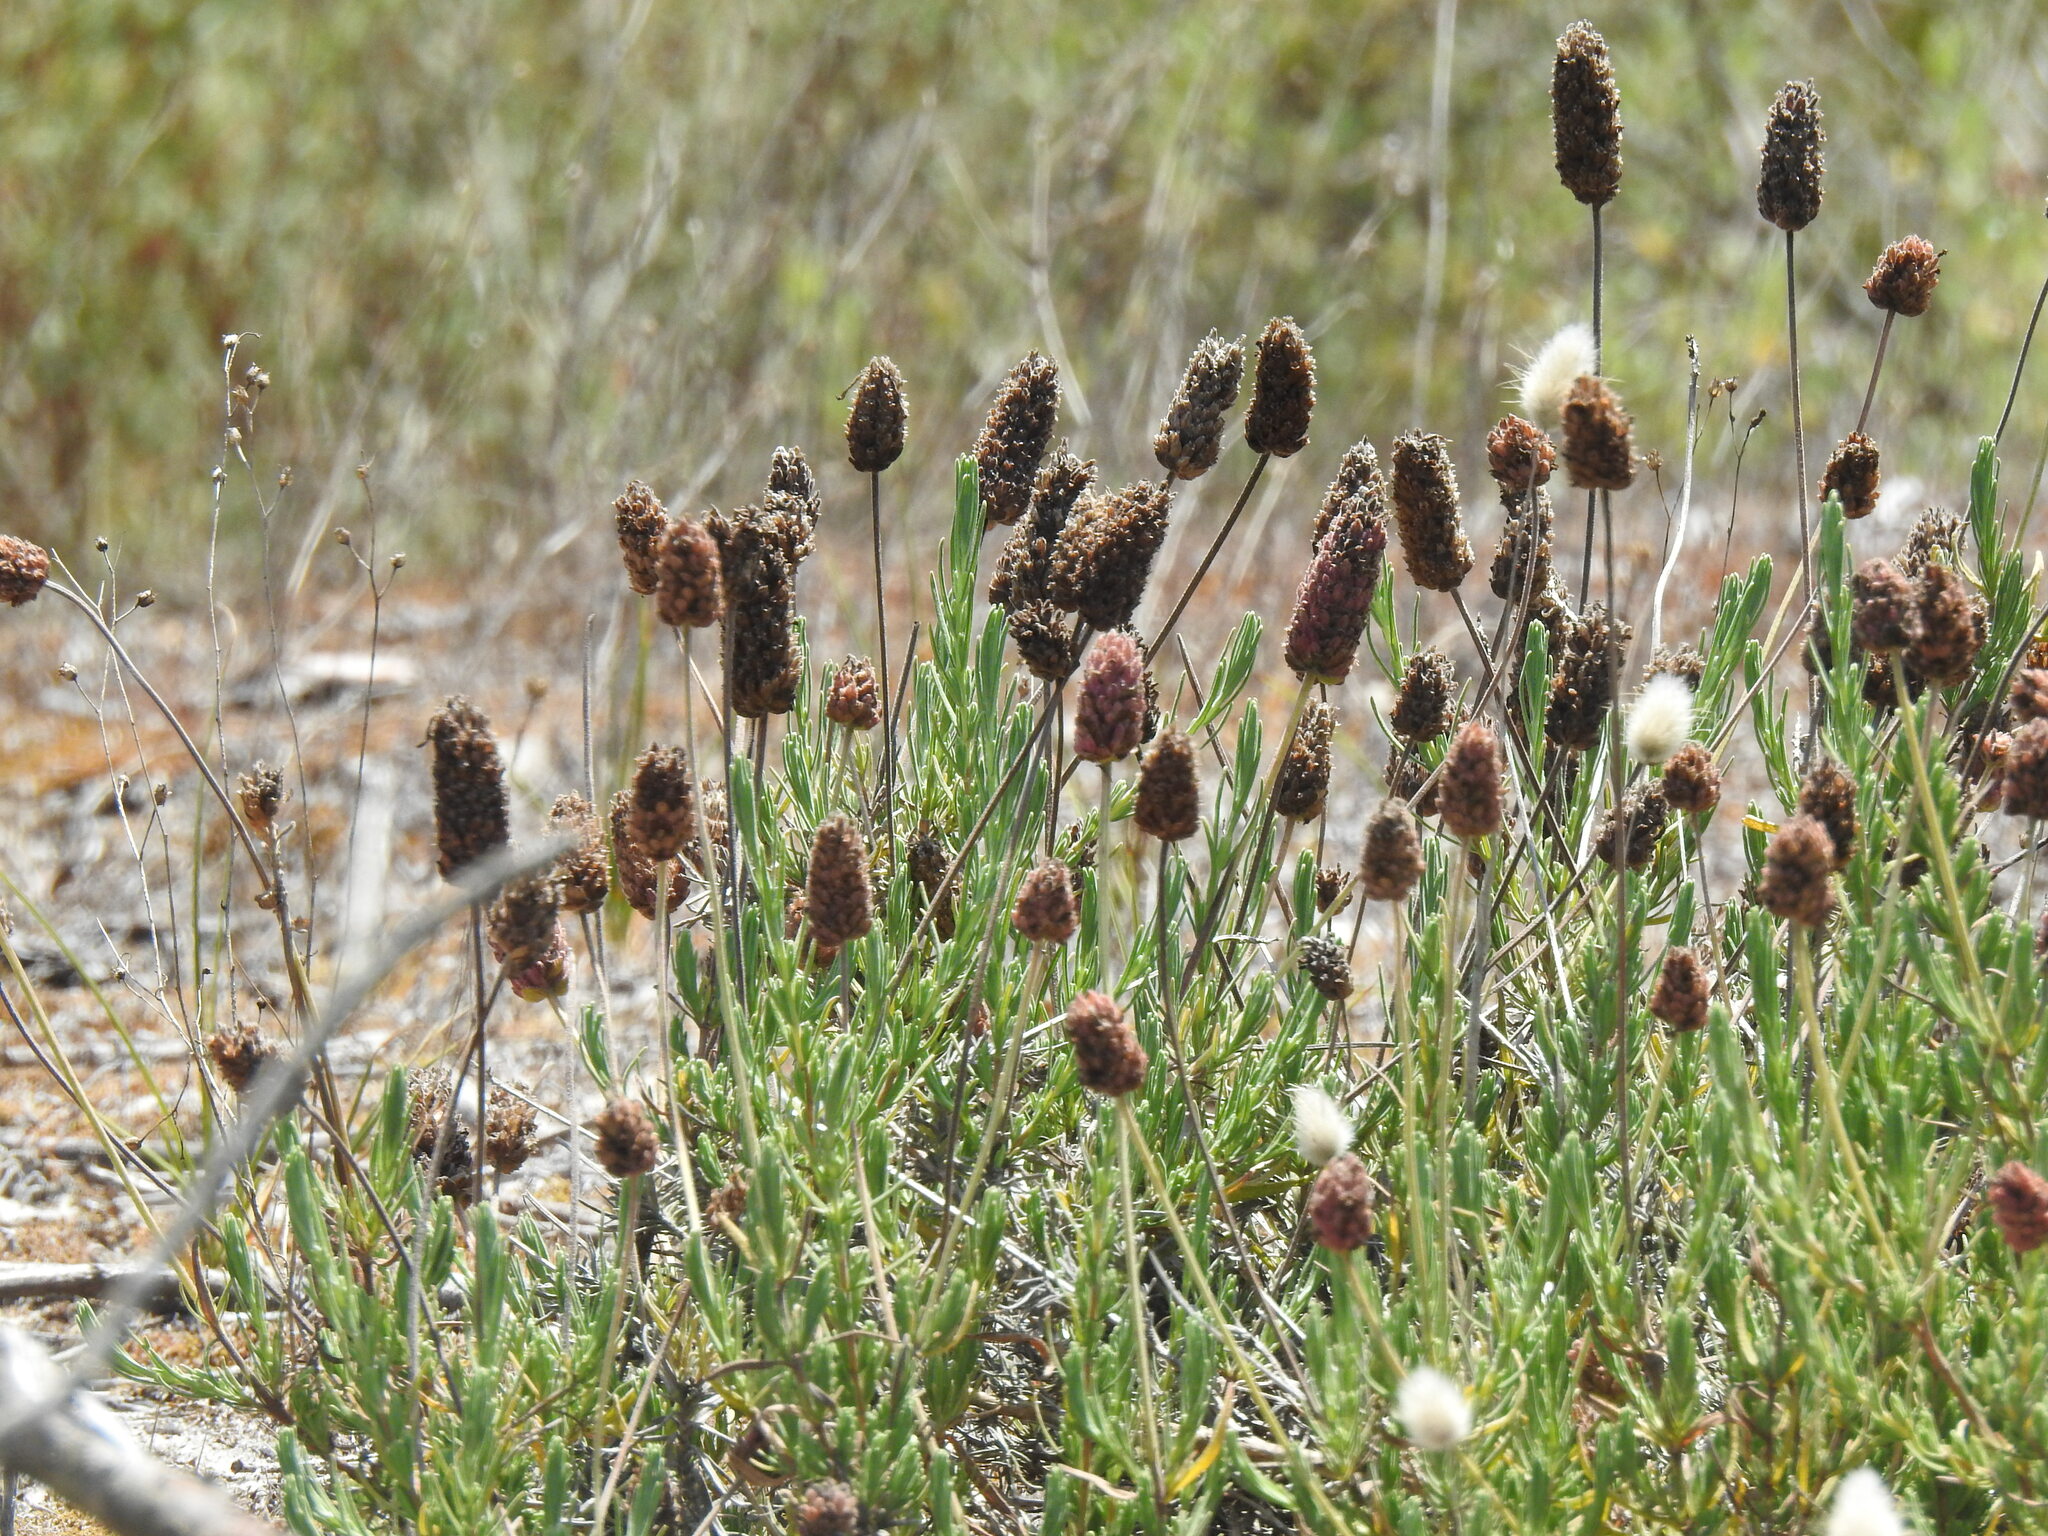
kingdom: Plantae
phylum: Tracheophyta
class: Magnoliopsida
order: Lamiales
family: Lamiaceae
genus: Lavandula
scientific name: Lavandula pedunculata
